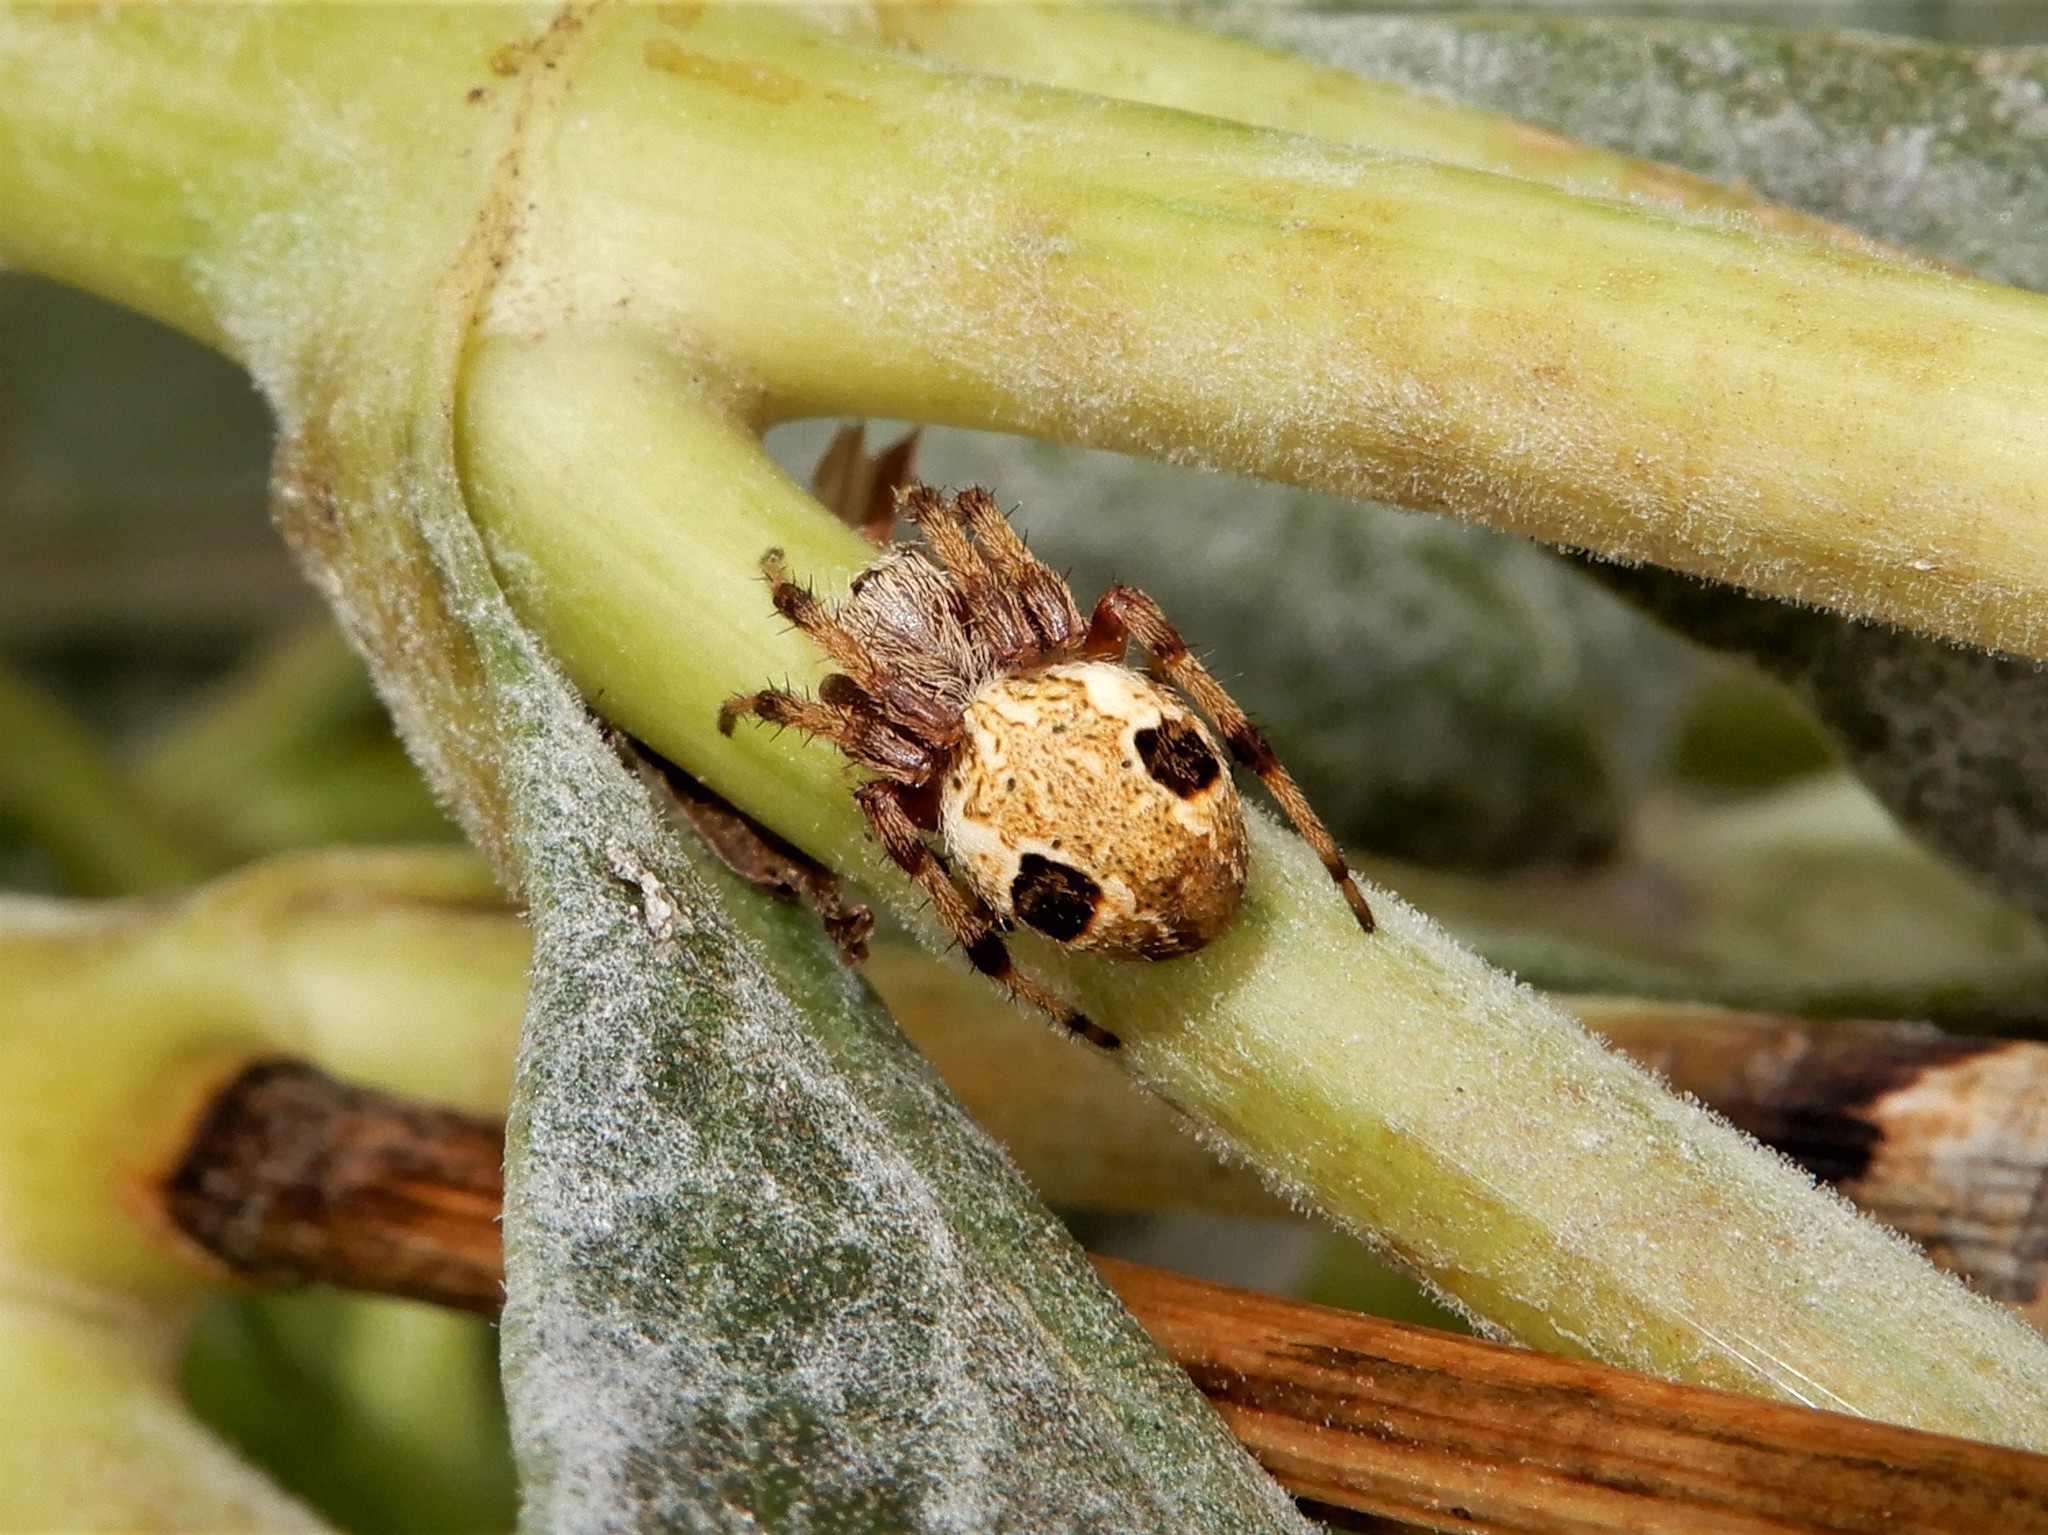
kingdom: Animalia
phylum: Arthropoda
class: Arachnida
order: Araneae
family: Araneidae
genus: Salsa
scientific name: Salsa fuliginata
